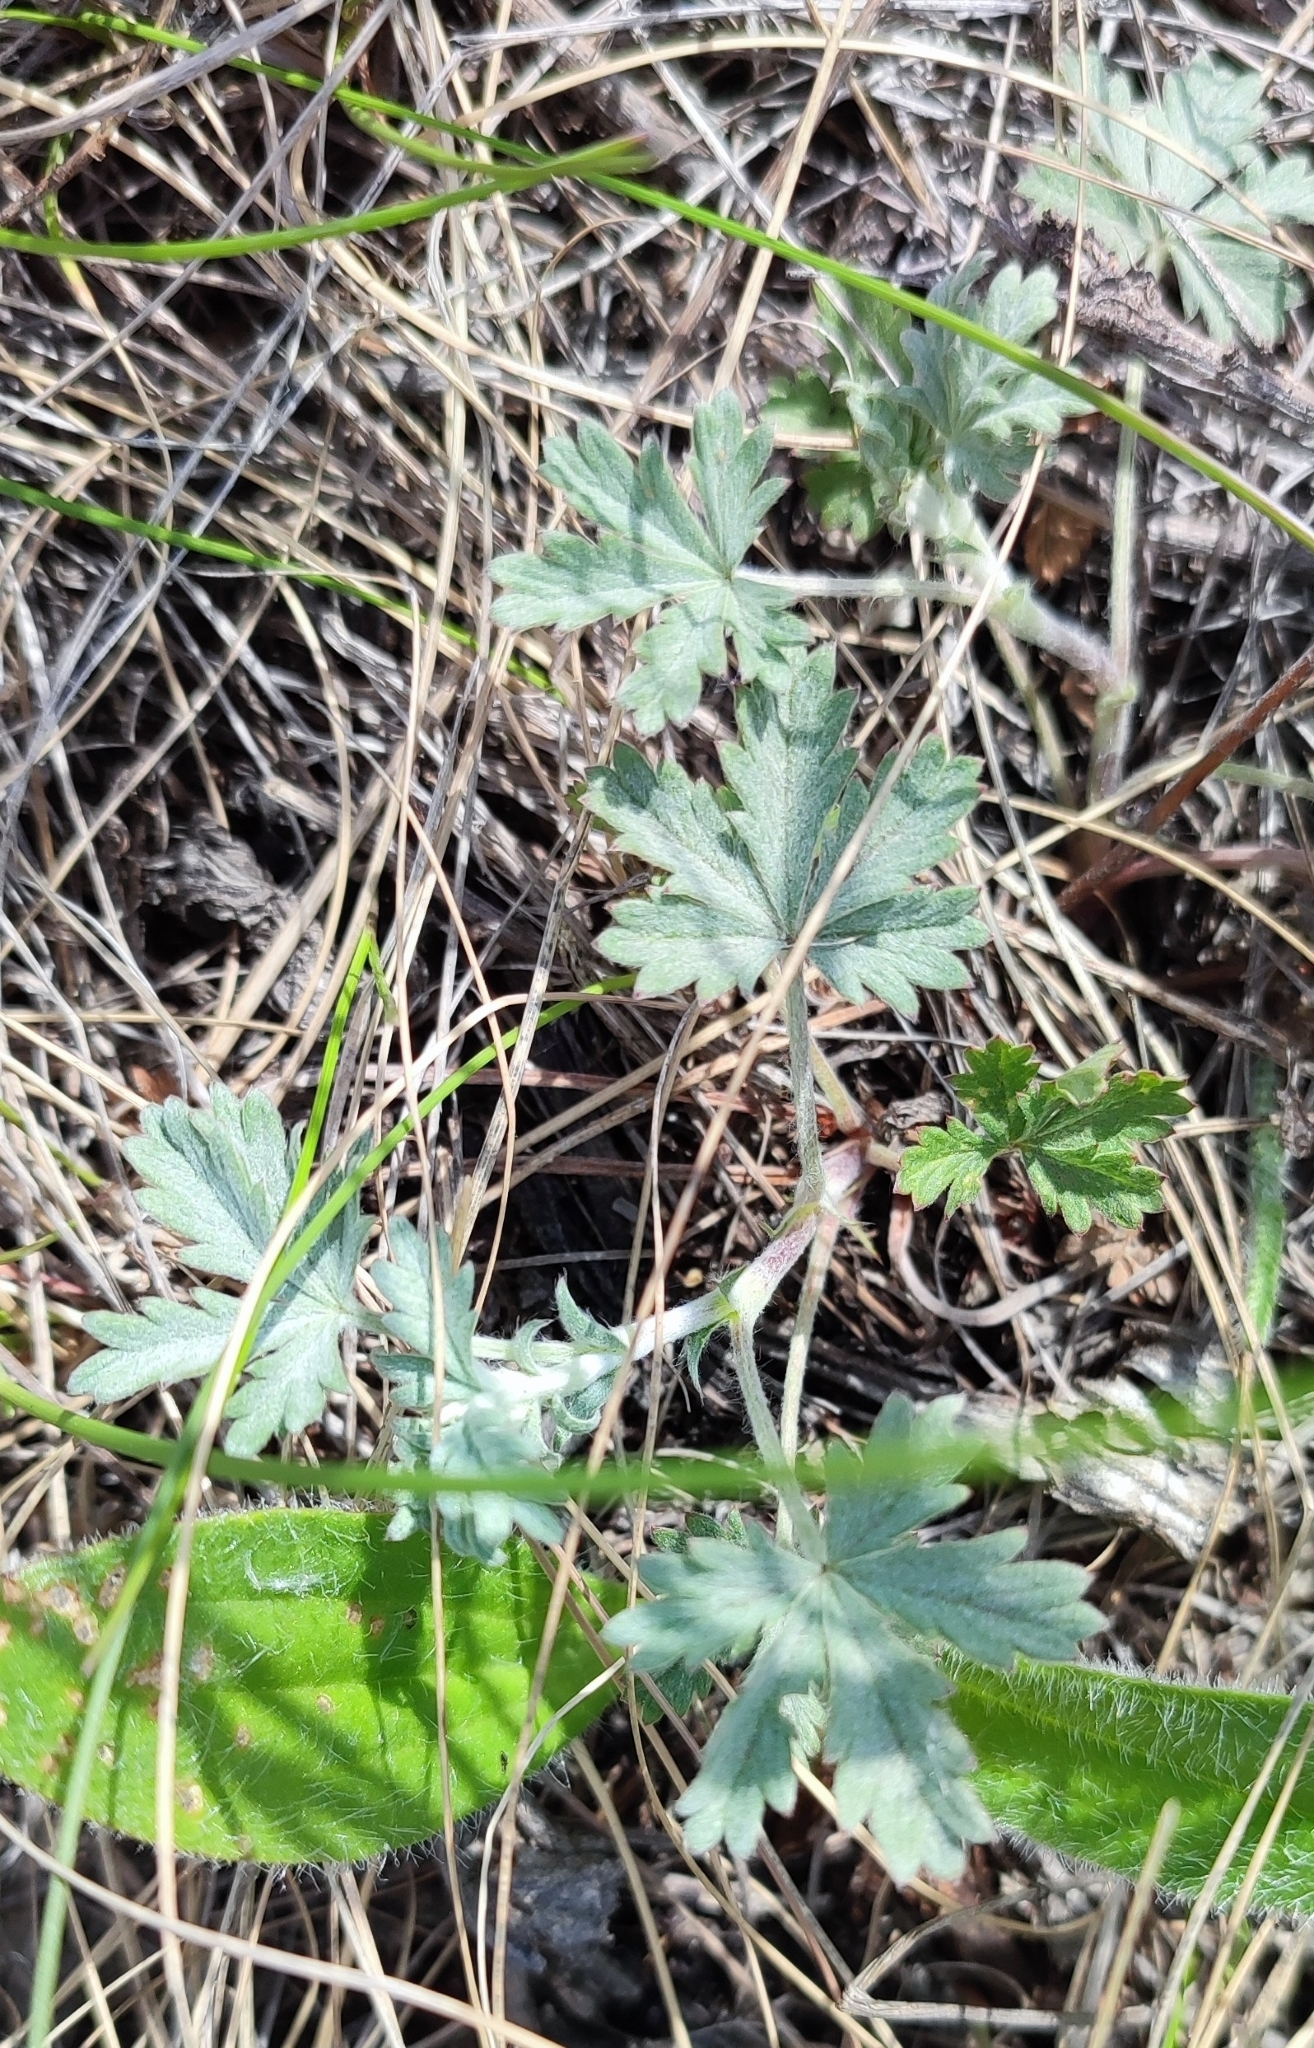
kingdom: Plantae
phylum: Tracheophyta
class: Magnoliopsida
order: Rosales
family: Rosaceae
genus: Potentilla
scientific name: Potentilla argentea
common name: Hoary cinquefoil
